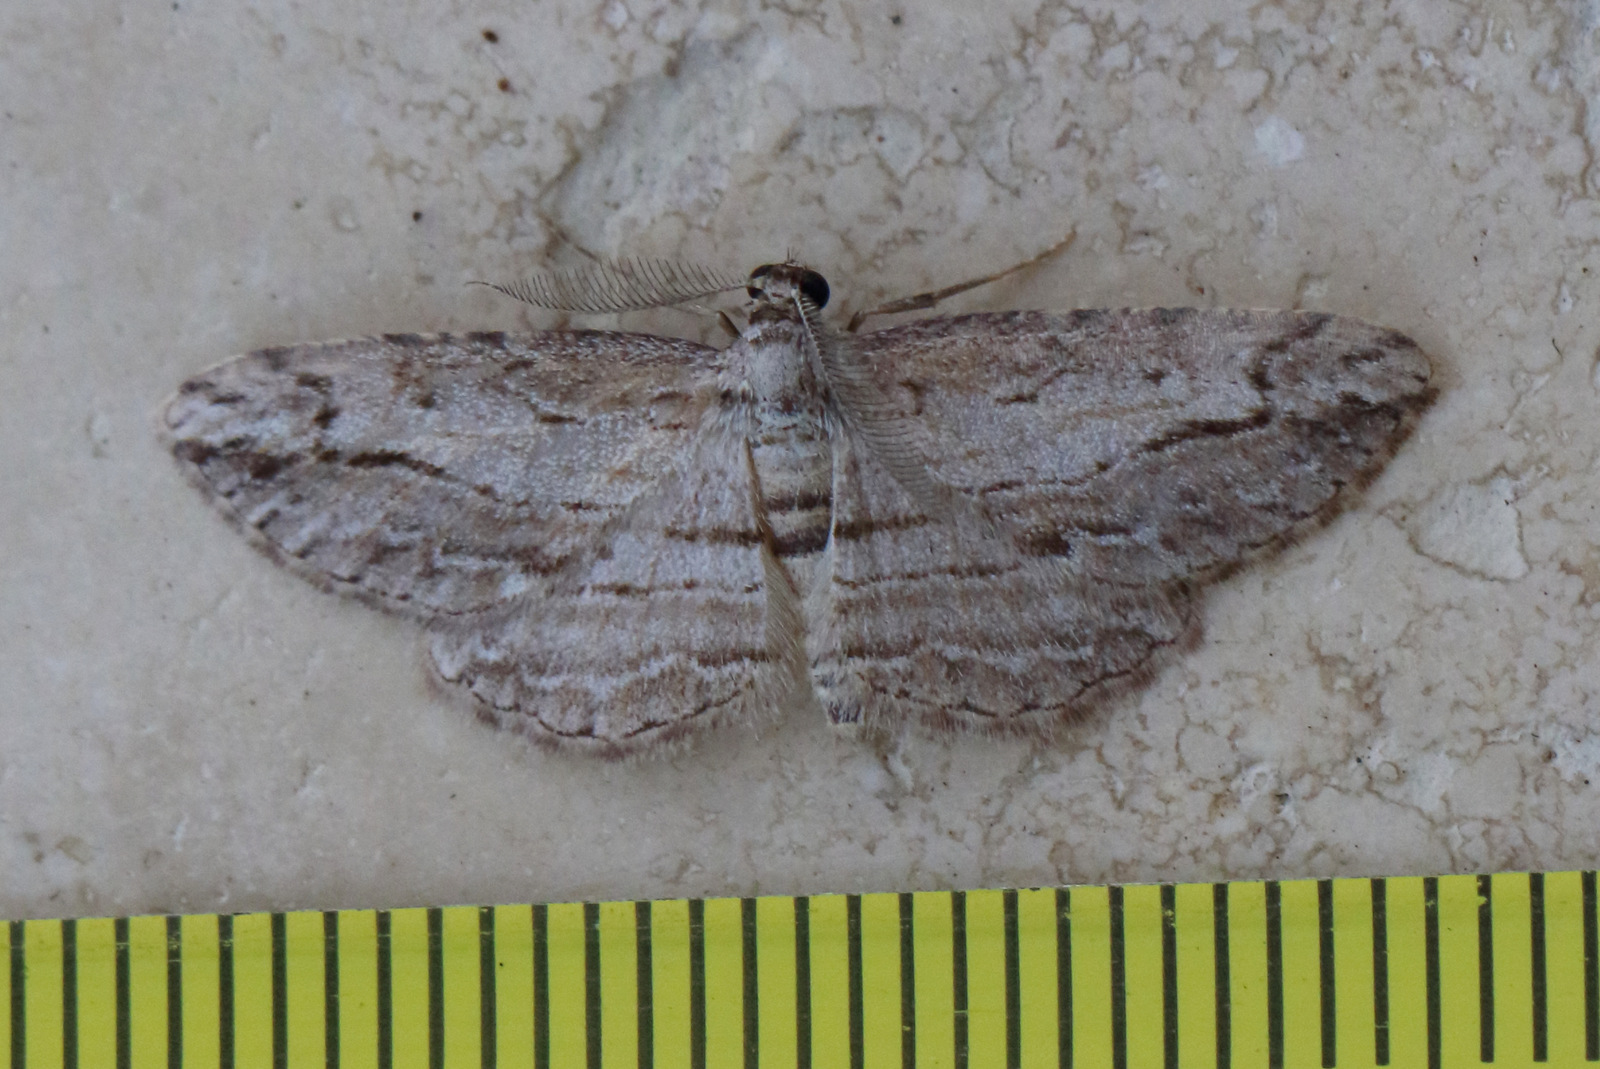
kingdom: Animalia
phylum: Arthropoda
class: Insecta
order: Lepidoptera
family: Geometridae
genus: Syneora
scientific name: Syneora acrotypa
